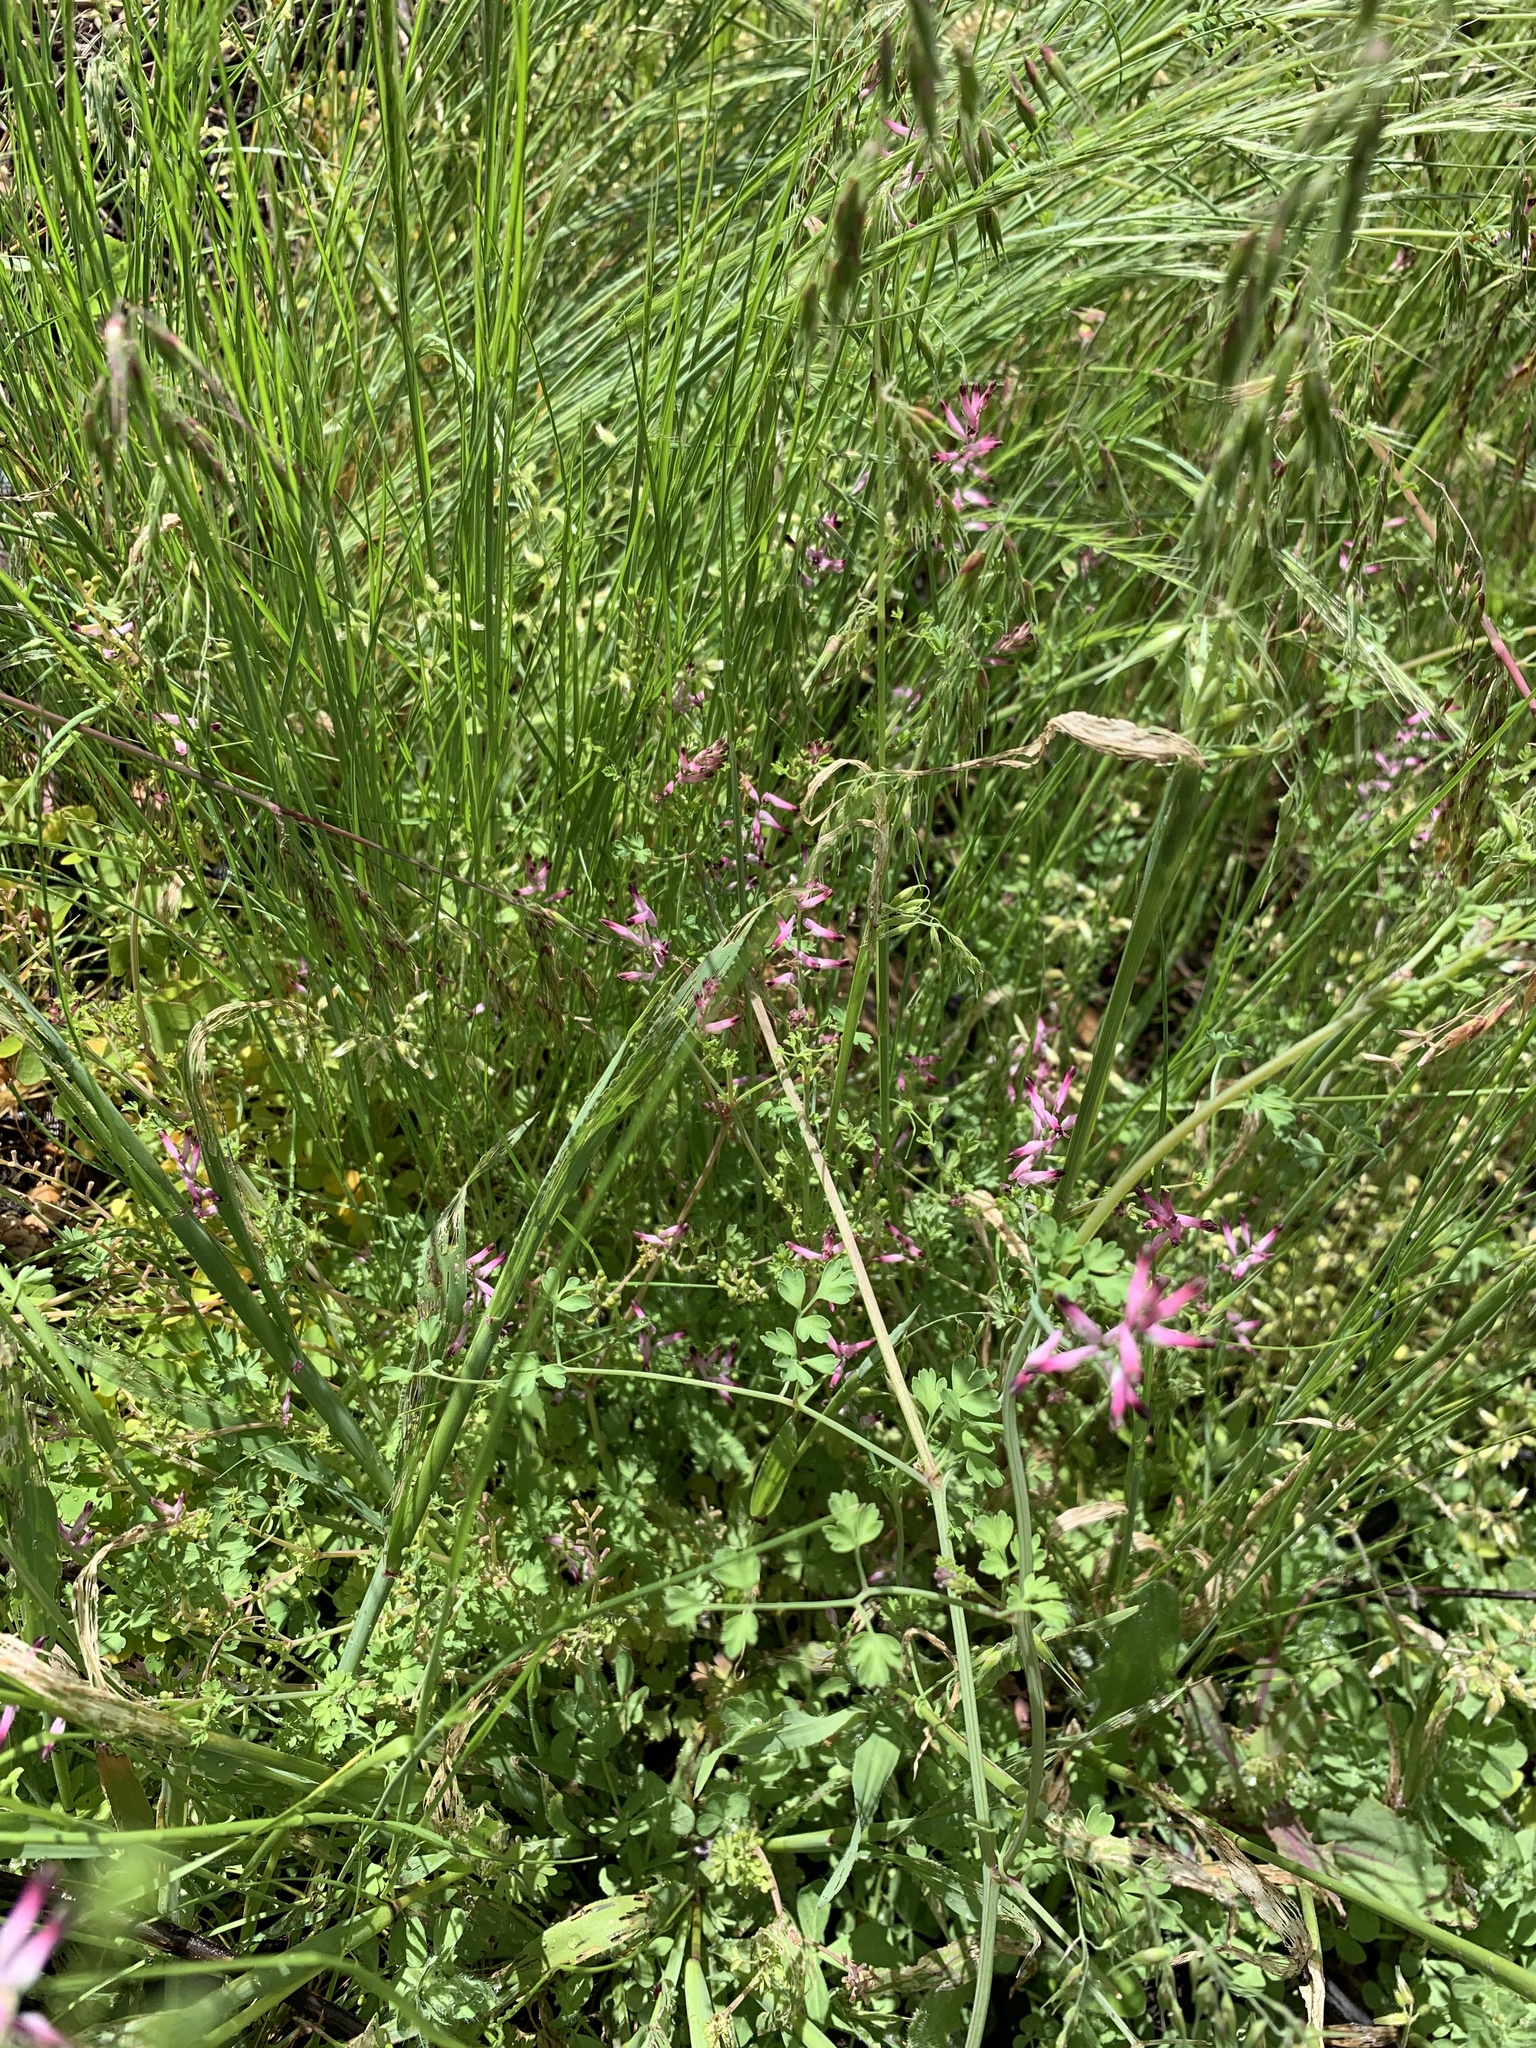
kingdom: Plantae
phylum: Tracheophyta
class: Magnoliopsida
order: Ranunculales
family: Papaveraceae
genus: Fumaria
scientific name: Fumaria muralis
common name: Common ramping-fumitory
